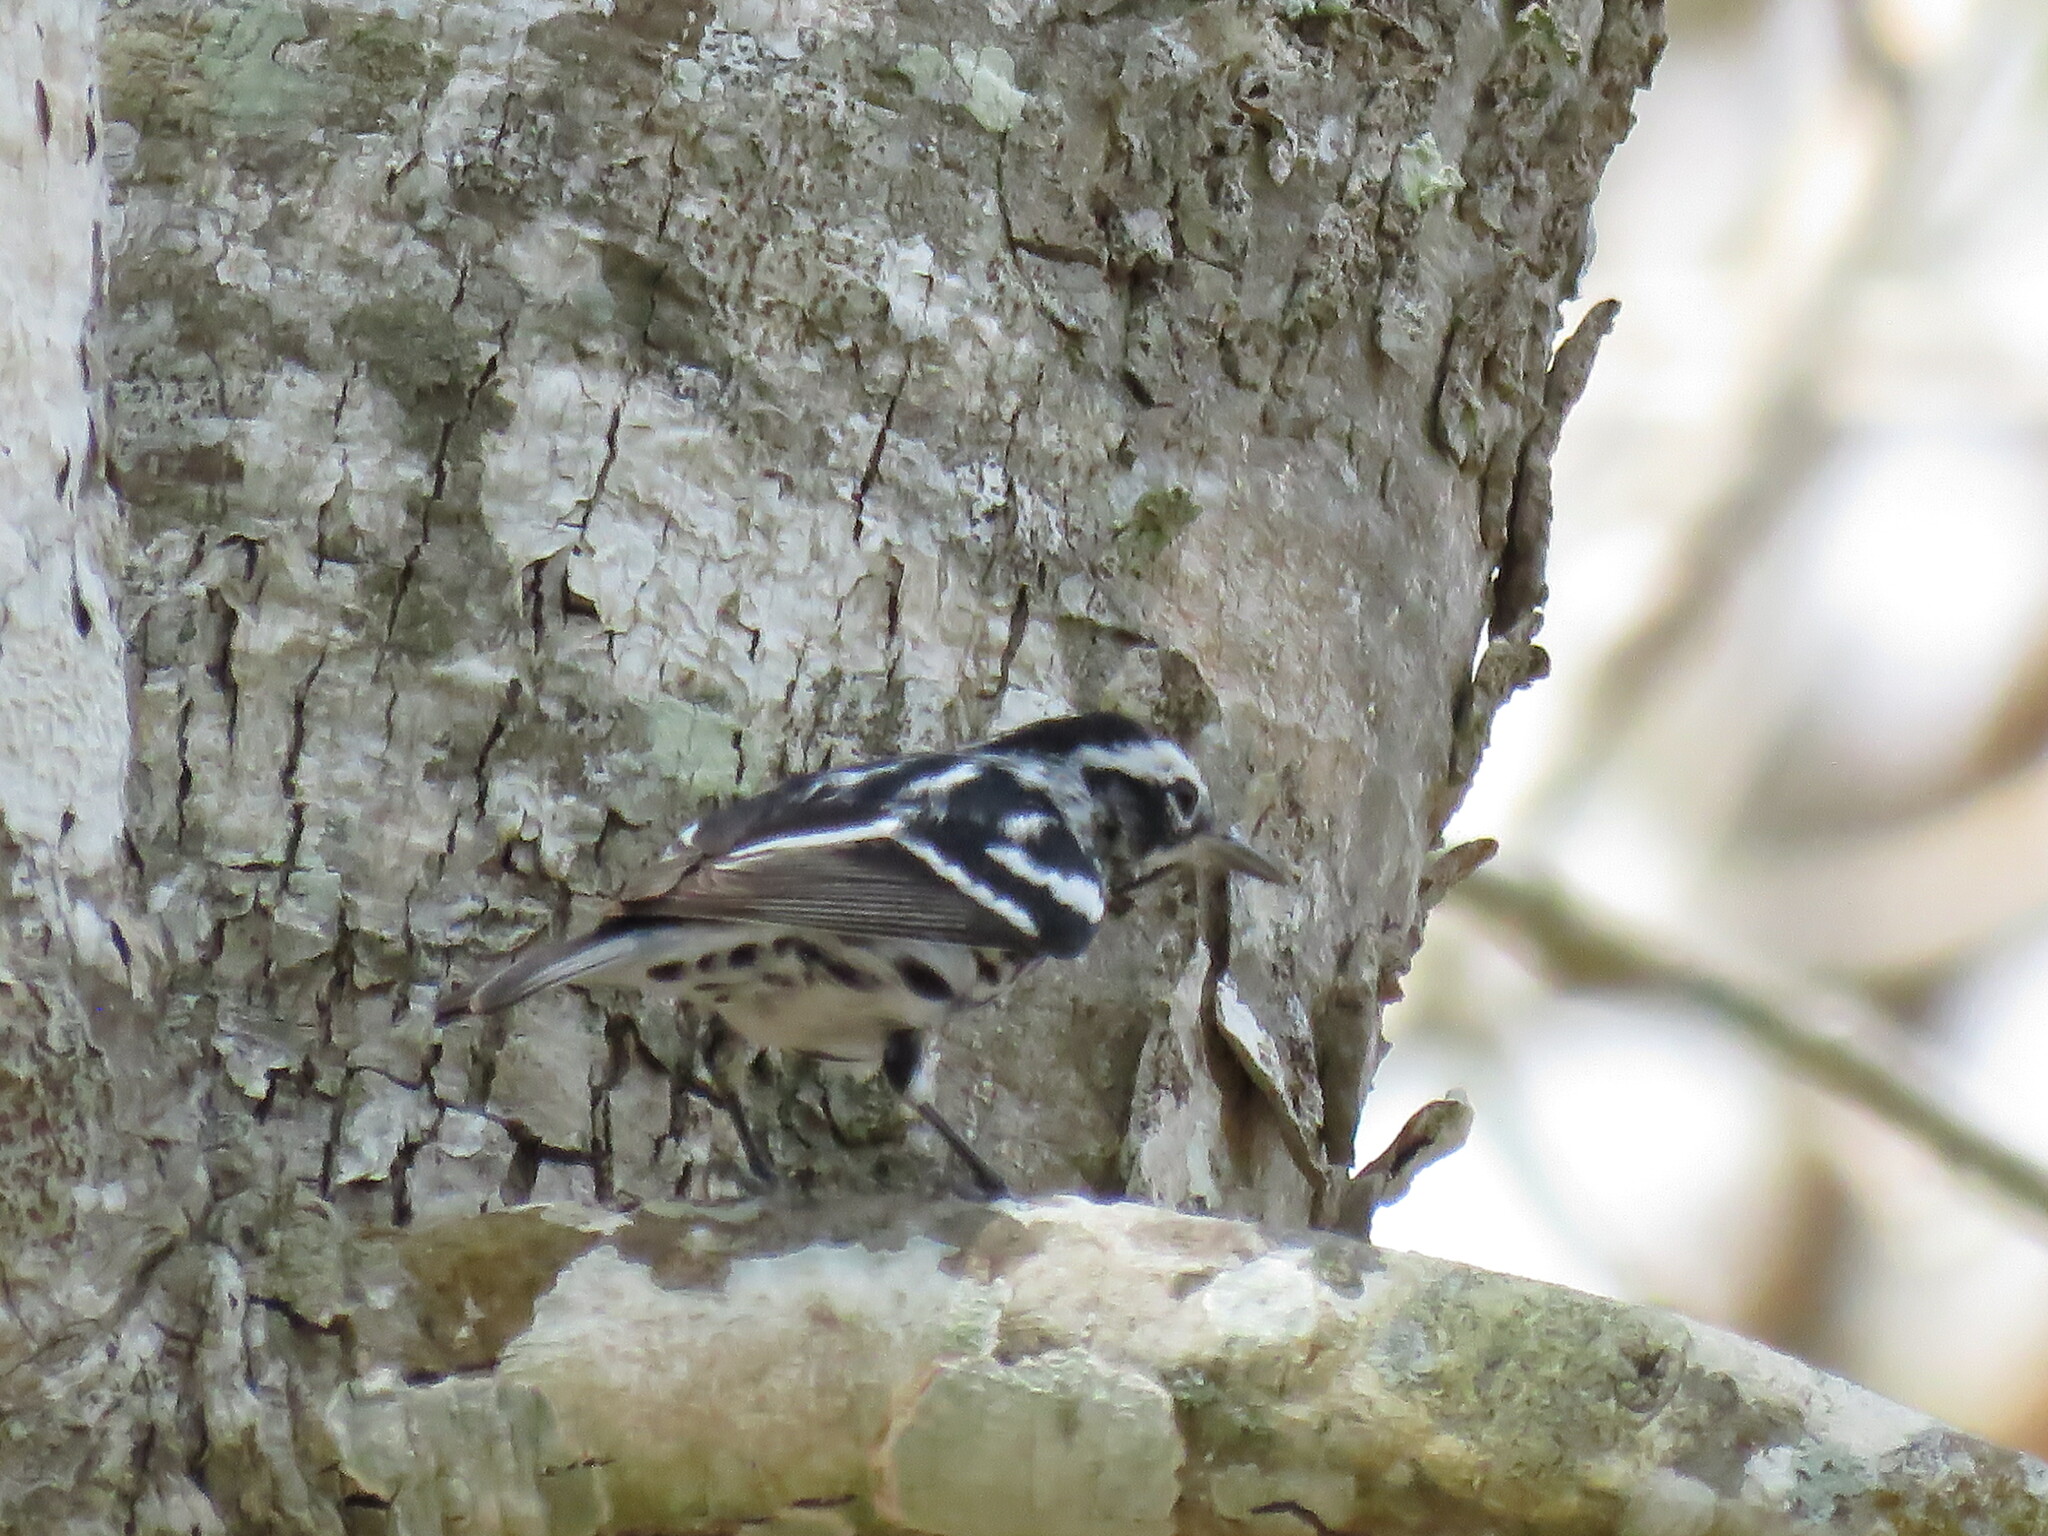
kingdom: Animalia
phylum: Chordata
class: Aves
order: Passeriformes
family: Parulidae
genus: Mniotilta
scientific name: Mniotilta varia
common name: Black-and-white warbler
